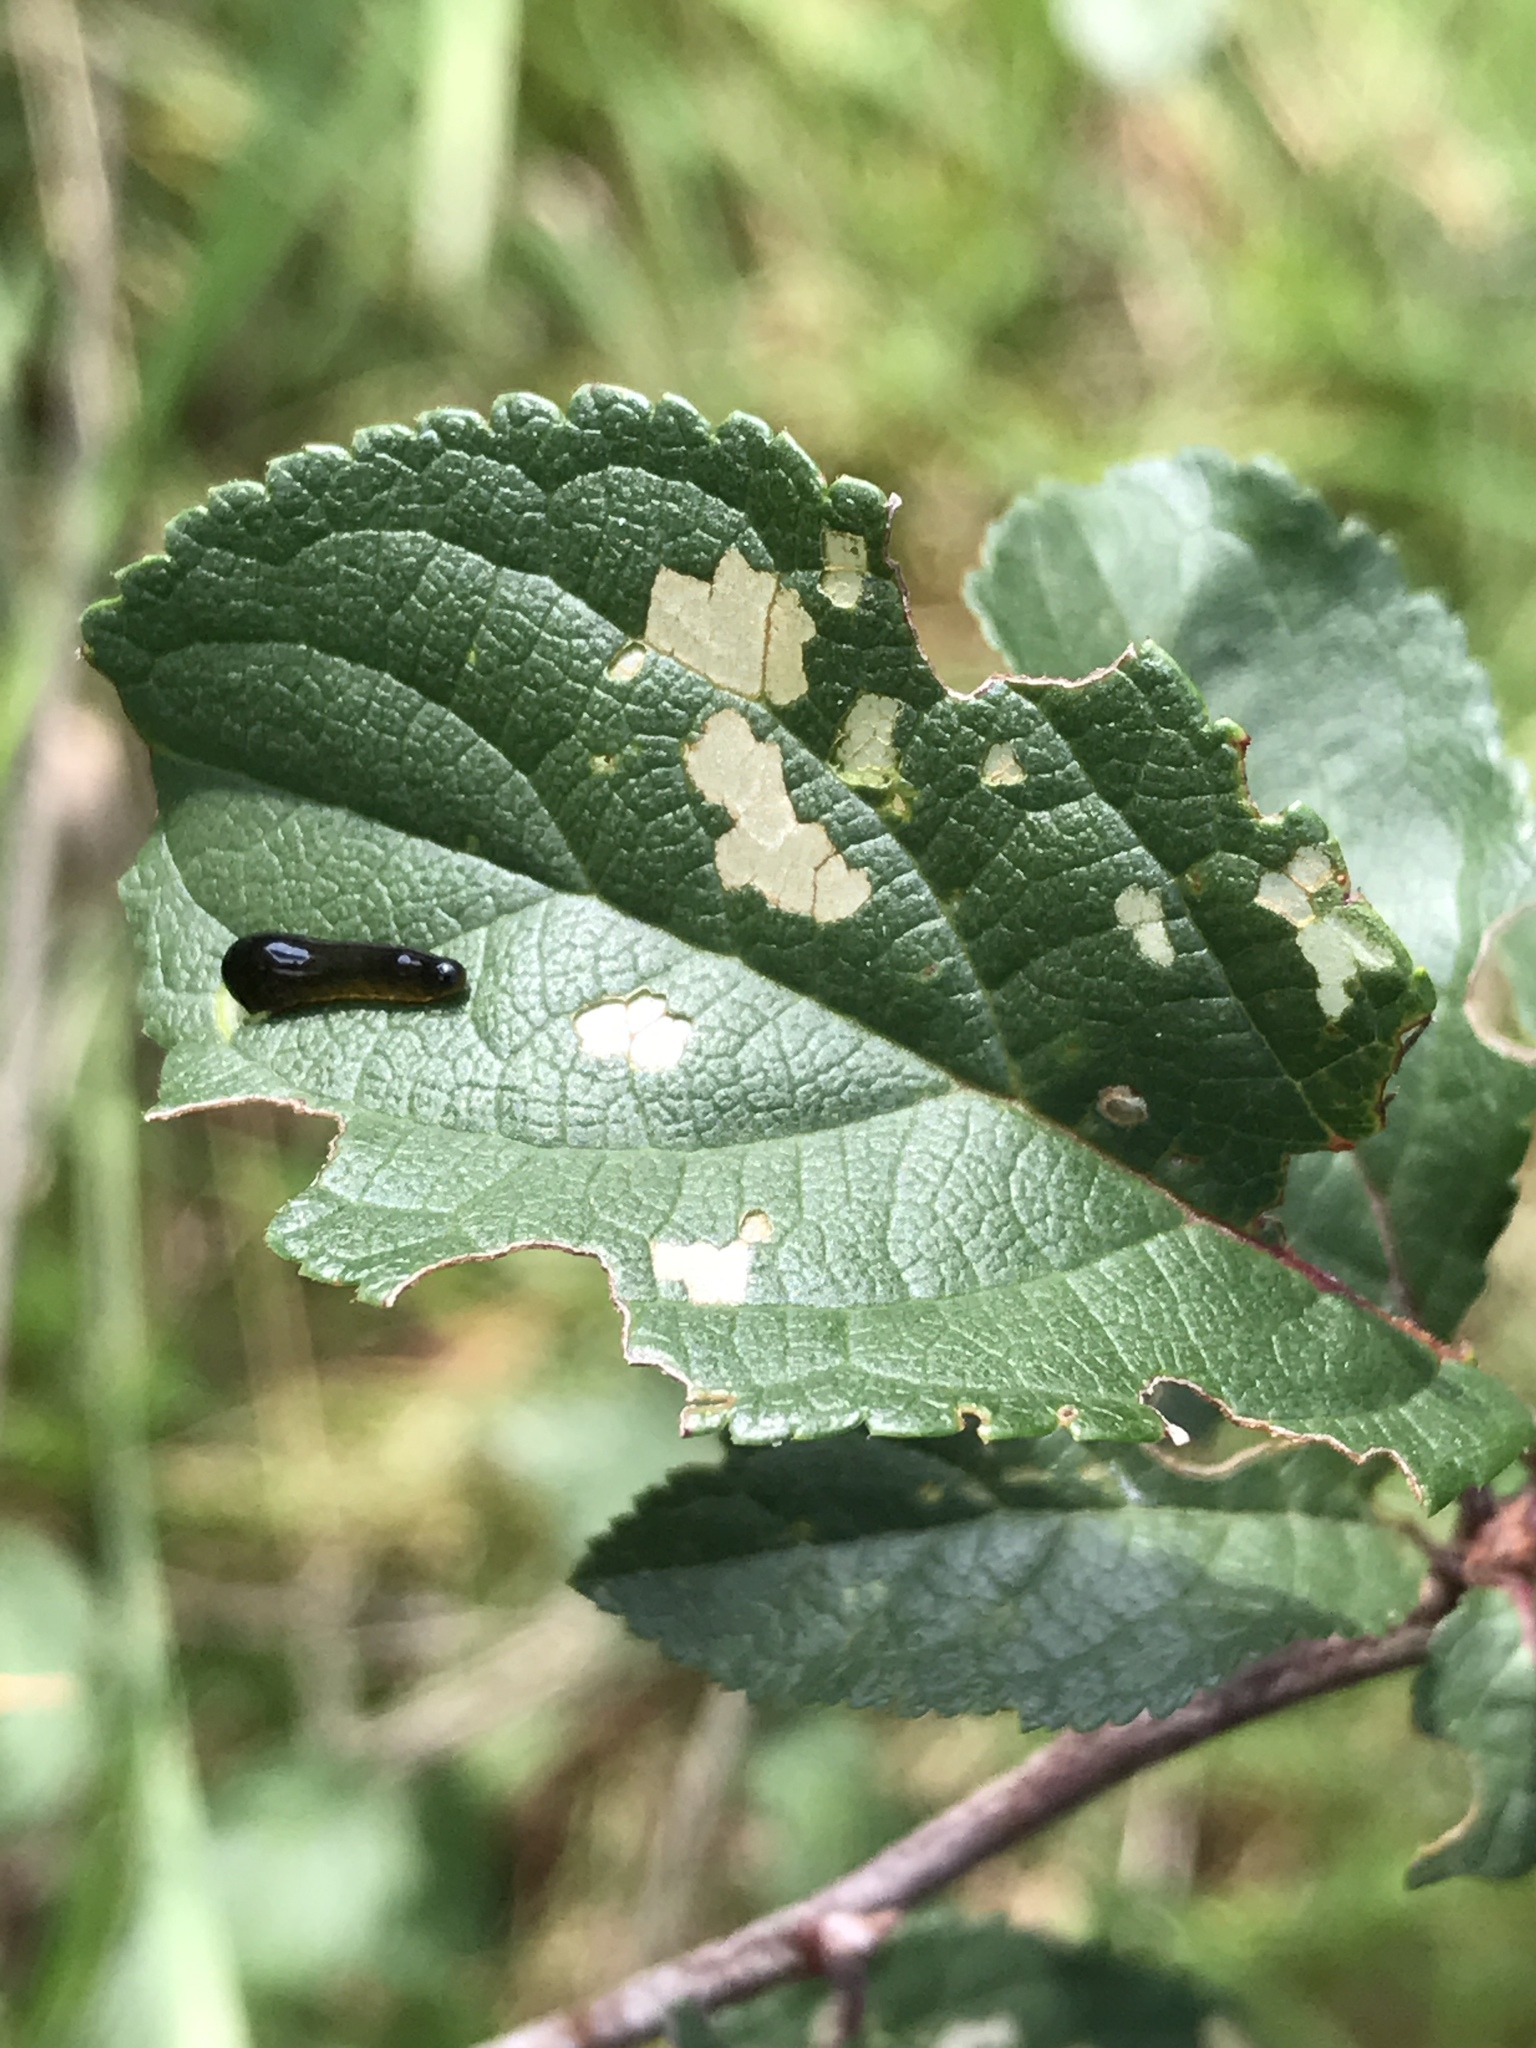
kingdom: Animalia
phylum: Arthropoda
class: Insecta
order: Hymenoptera
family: Tenthredinidae
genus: Caliroa
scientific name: Caliroa cerasi
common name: Pear sawfly
